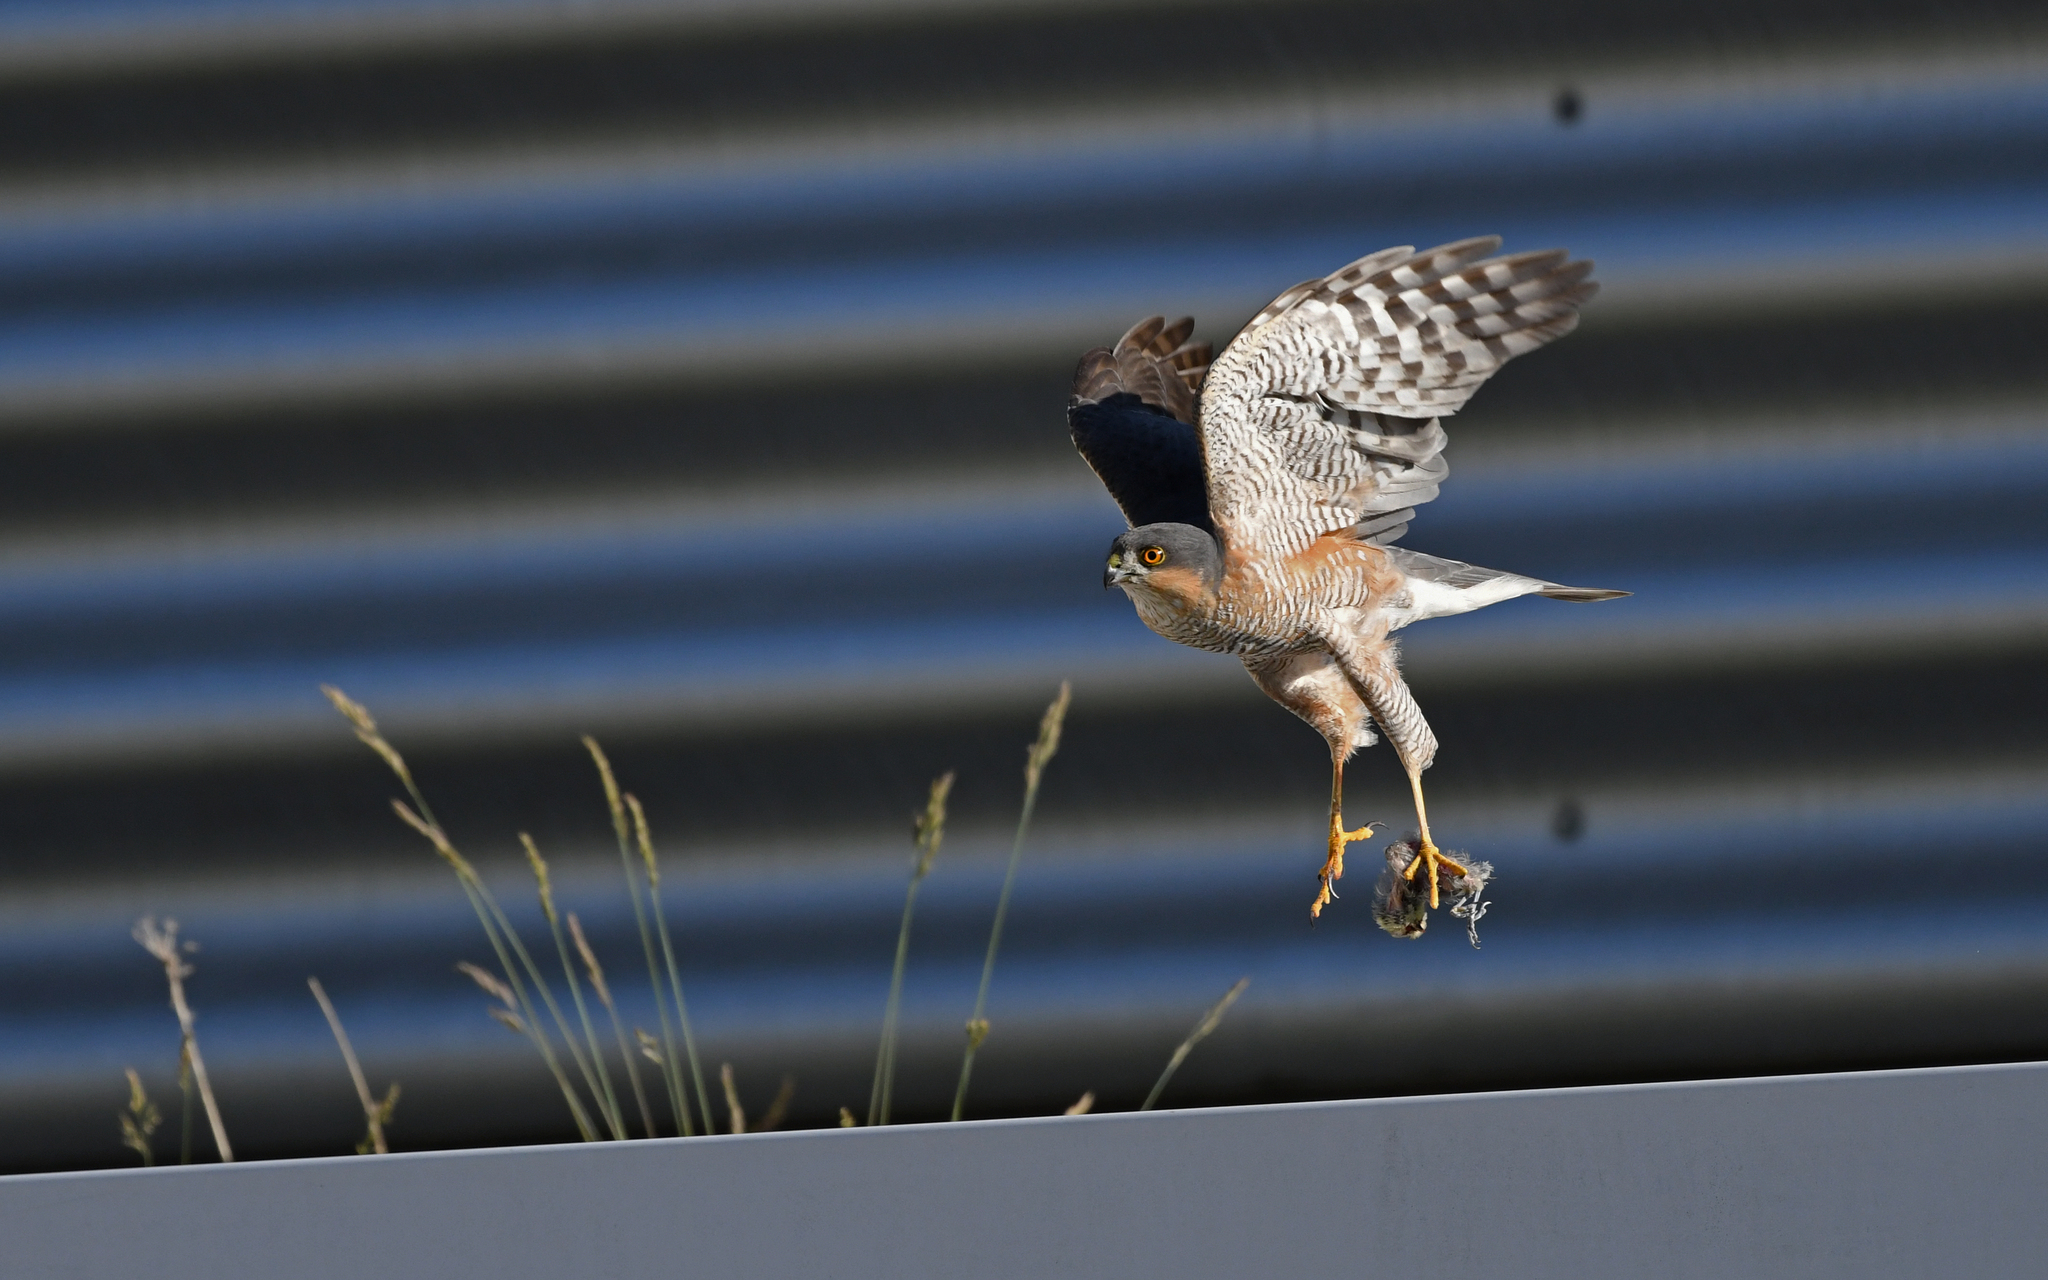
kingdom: Animalia
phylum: Chordata
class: Aves
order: Accipitriformes
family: Accipitridae
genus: Accipiter
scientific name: Accipiter nisus
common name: Eurasian sparrowhawk
